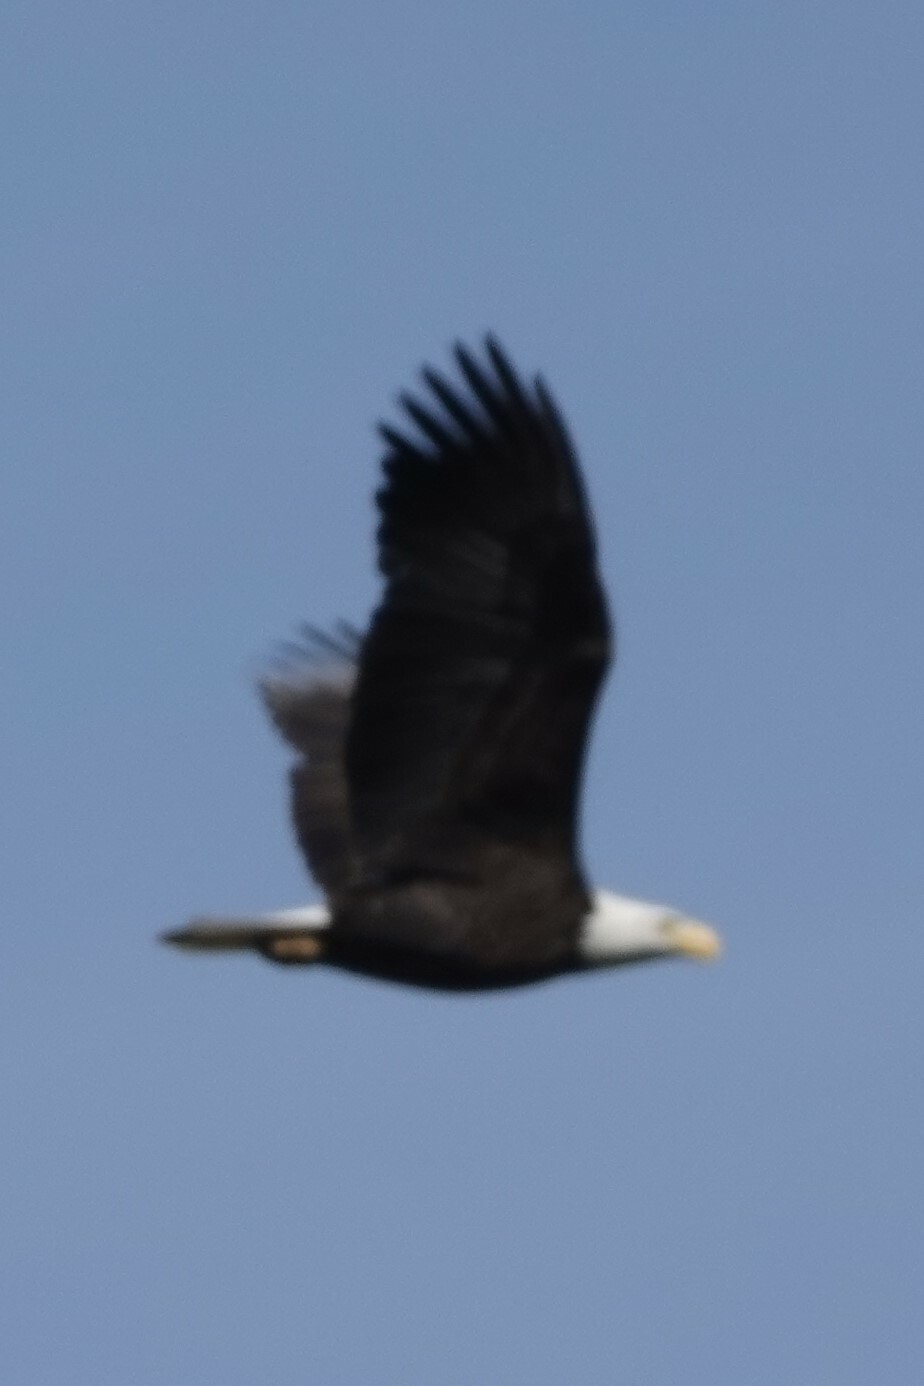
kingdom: Animalia
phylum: Chordata
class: Aves
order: Accipitriformes
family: Accipitridae
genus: Haliaeetus
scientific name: Haliaeetus leucocephalus
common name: Bald eagle
